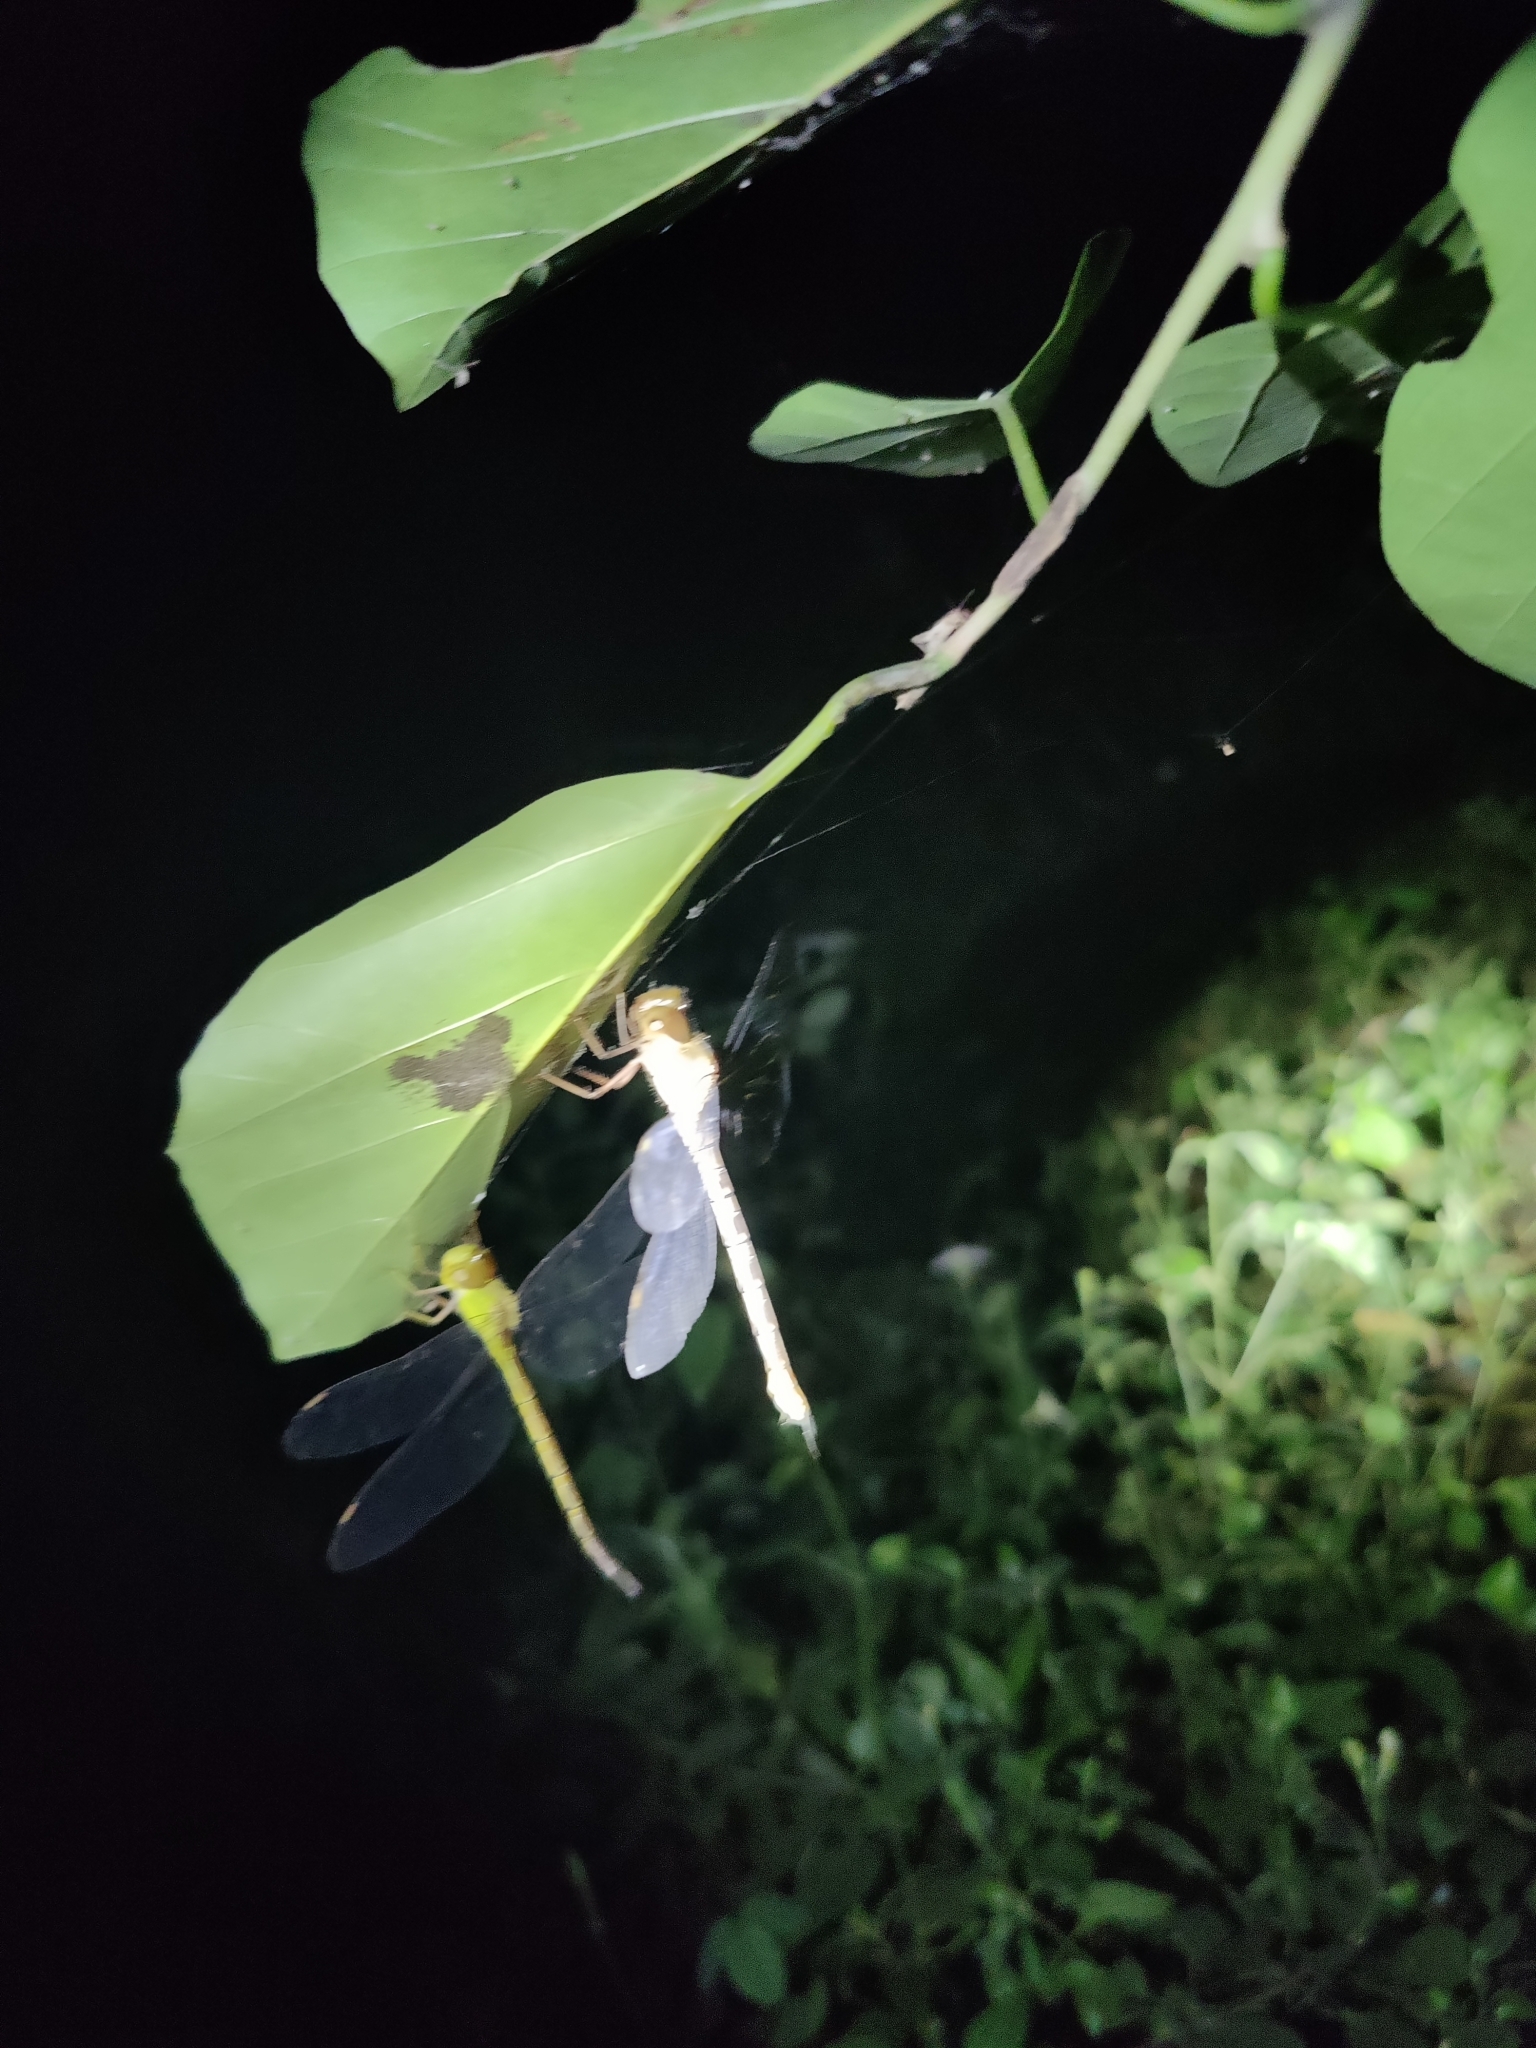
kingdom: Animalia
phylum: Arthropoda
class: Insecta
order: Odonata
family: Aeshnidae
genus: Gynacantha
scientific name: Gynacantha millardi
